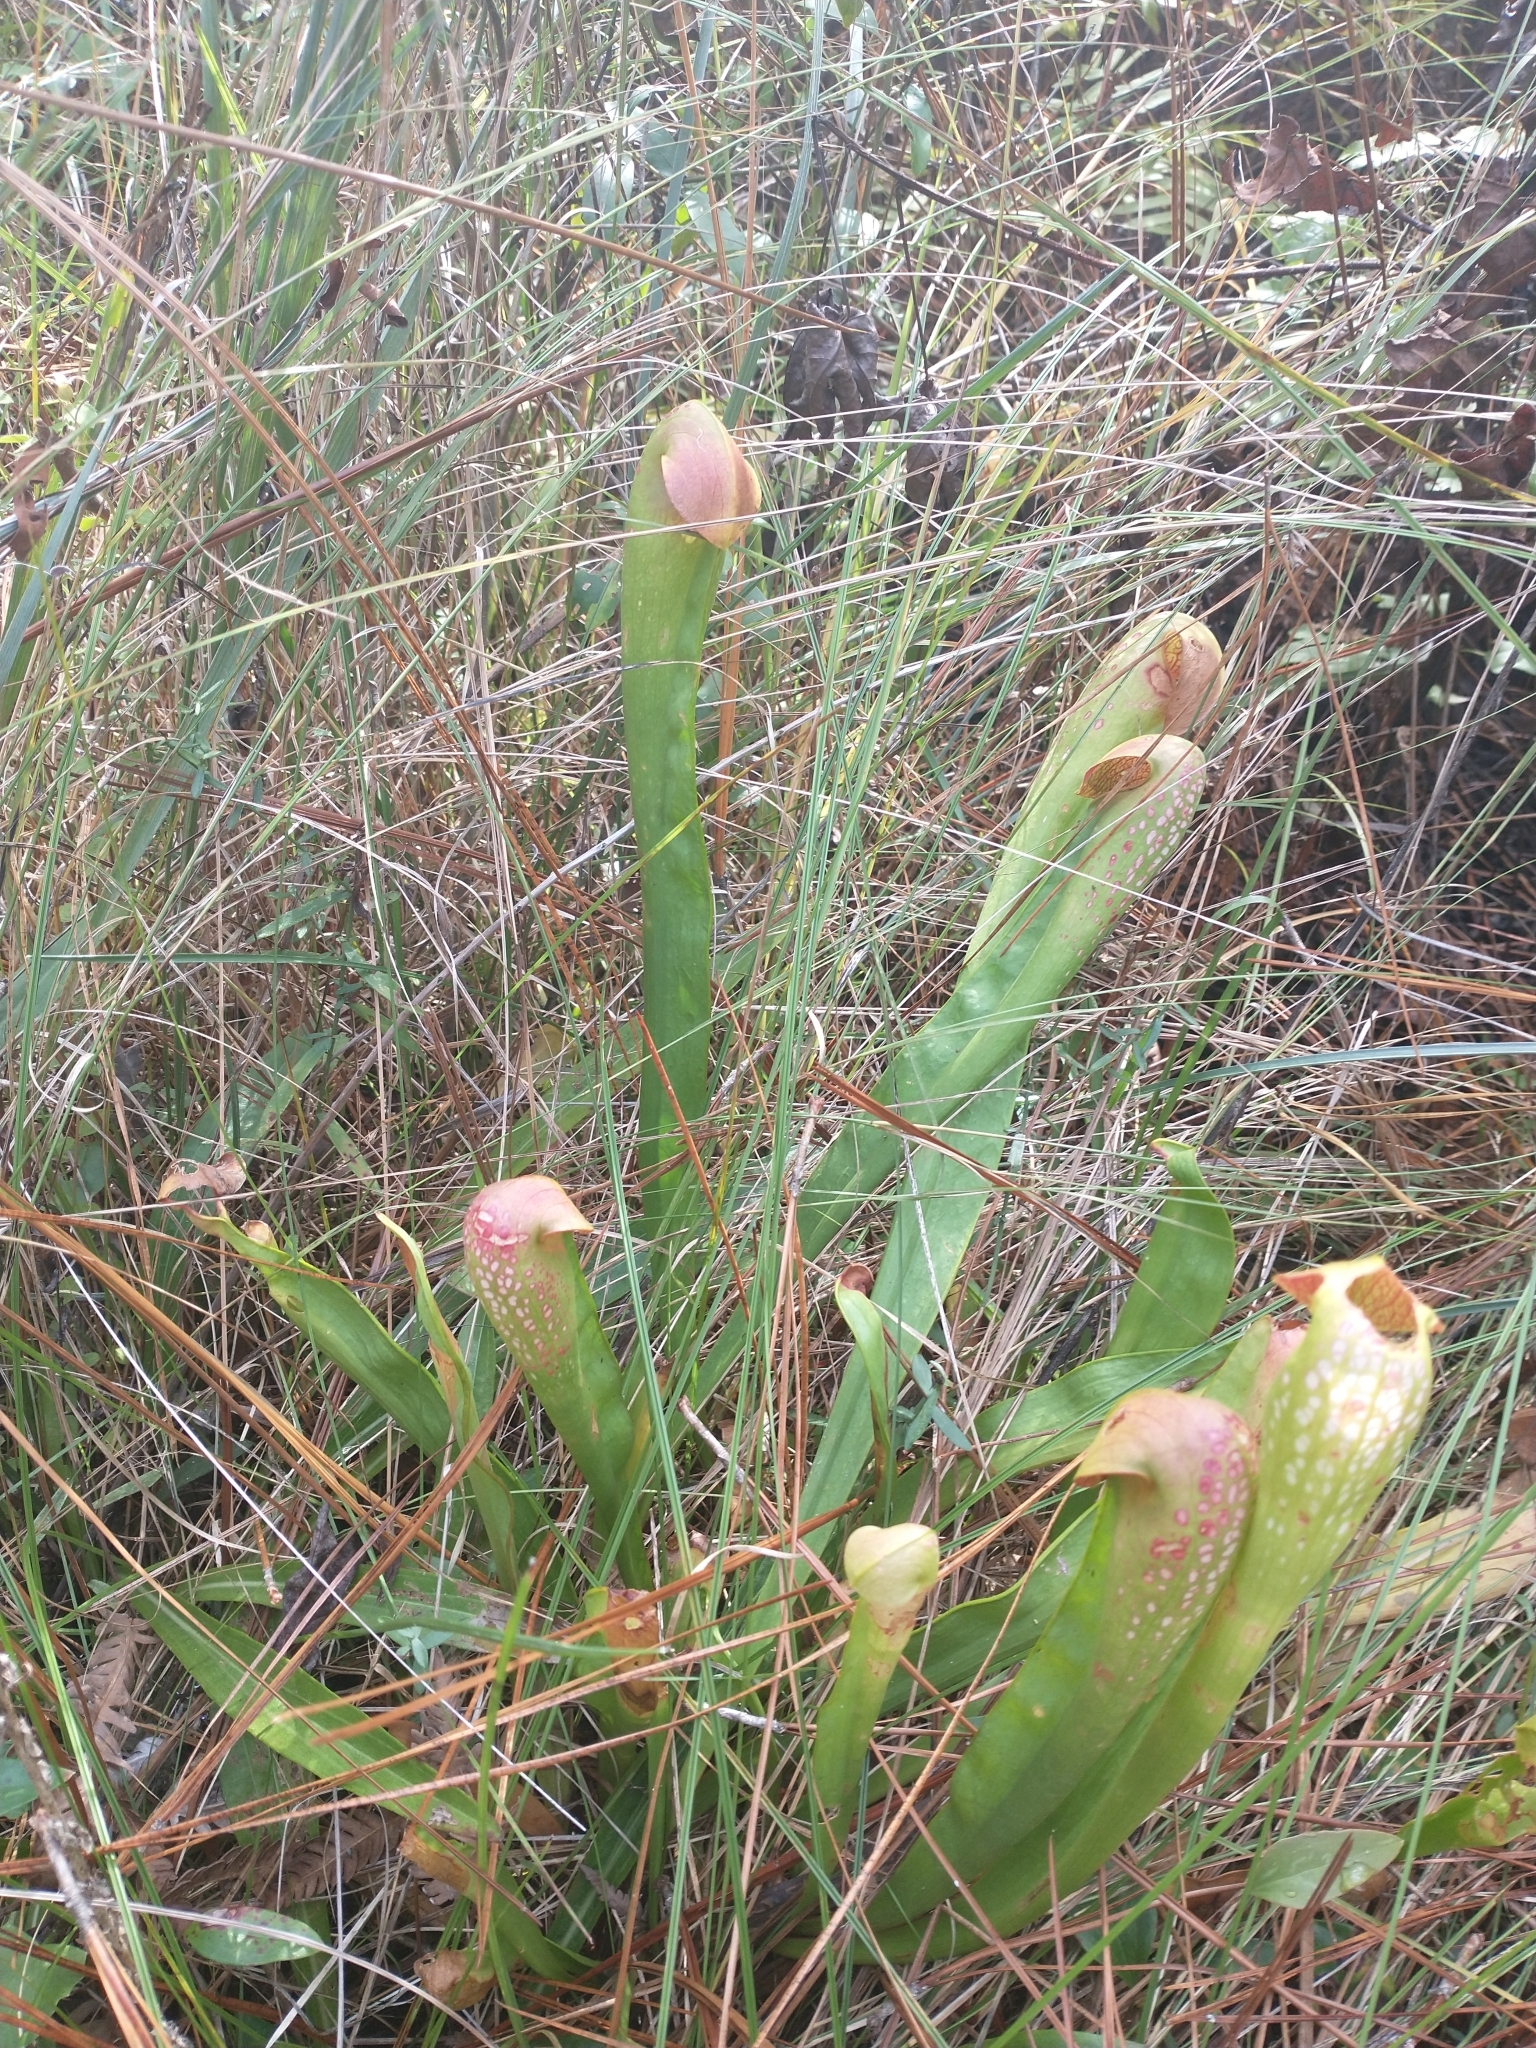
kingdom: Plantae
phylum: Tracheophyta
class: Magnoliopsida
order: Ericales
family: Sarraceniaceae
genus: Sarracenia
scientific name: Sarracenia minor
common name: Rainhat-trumpet
